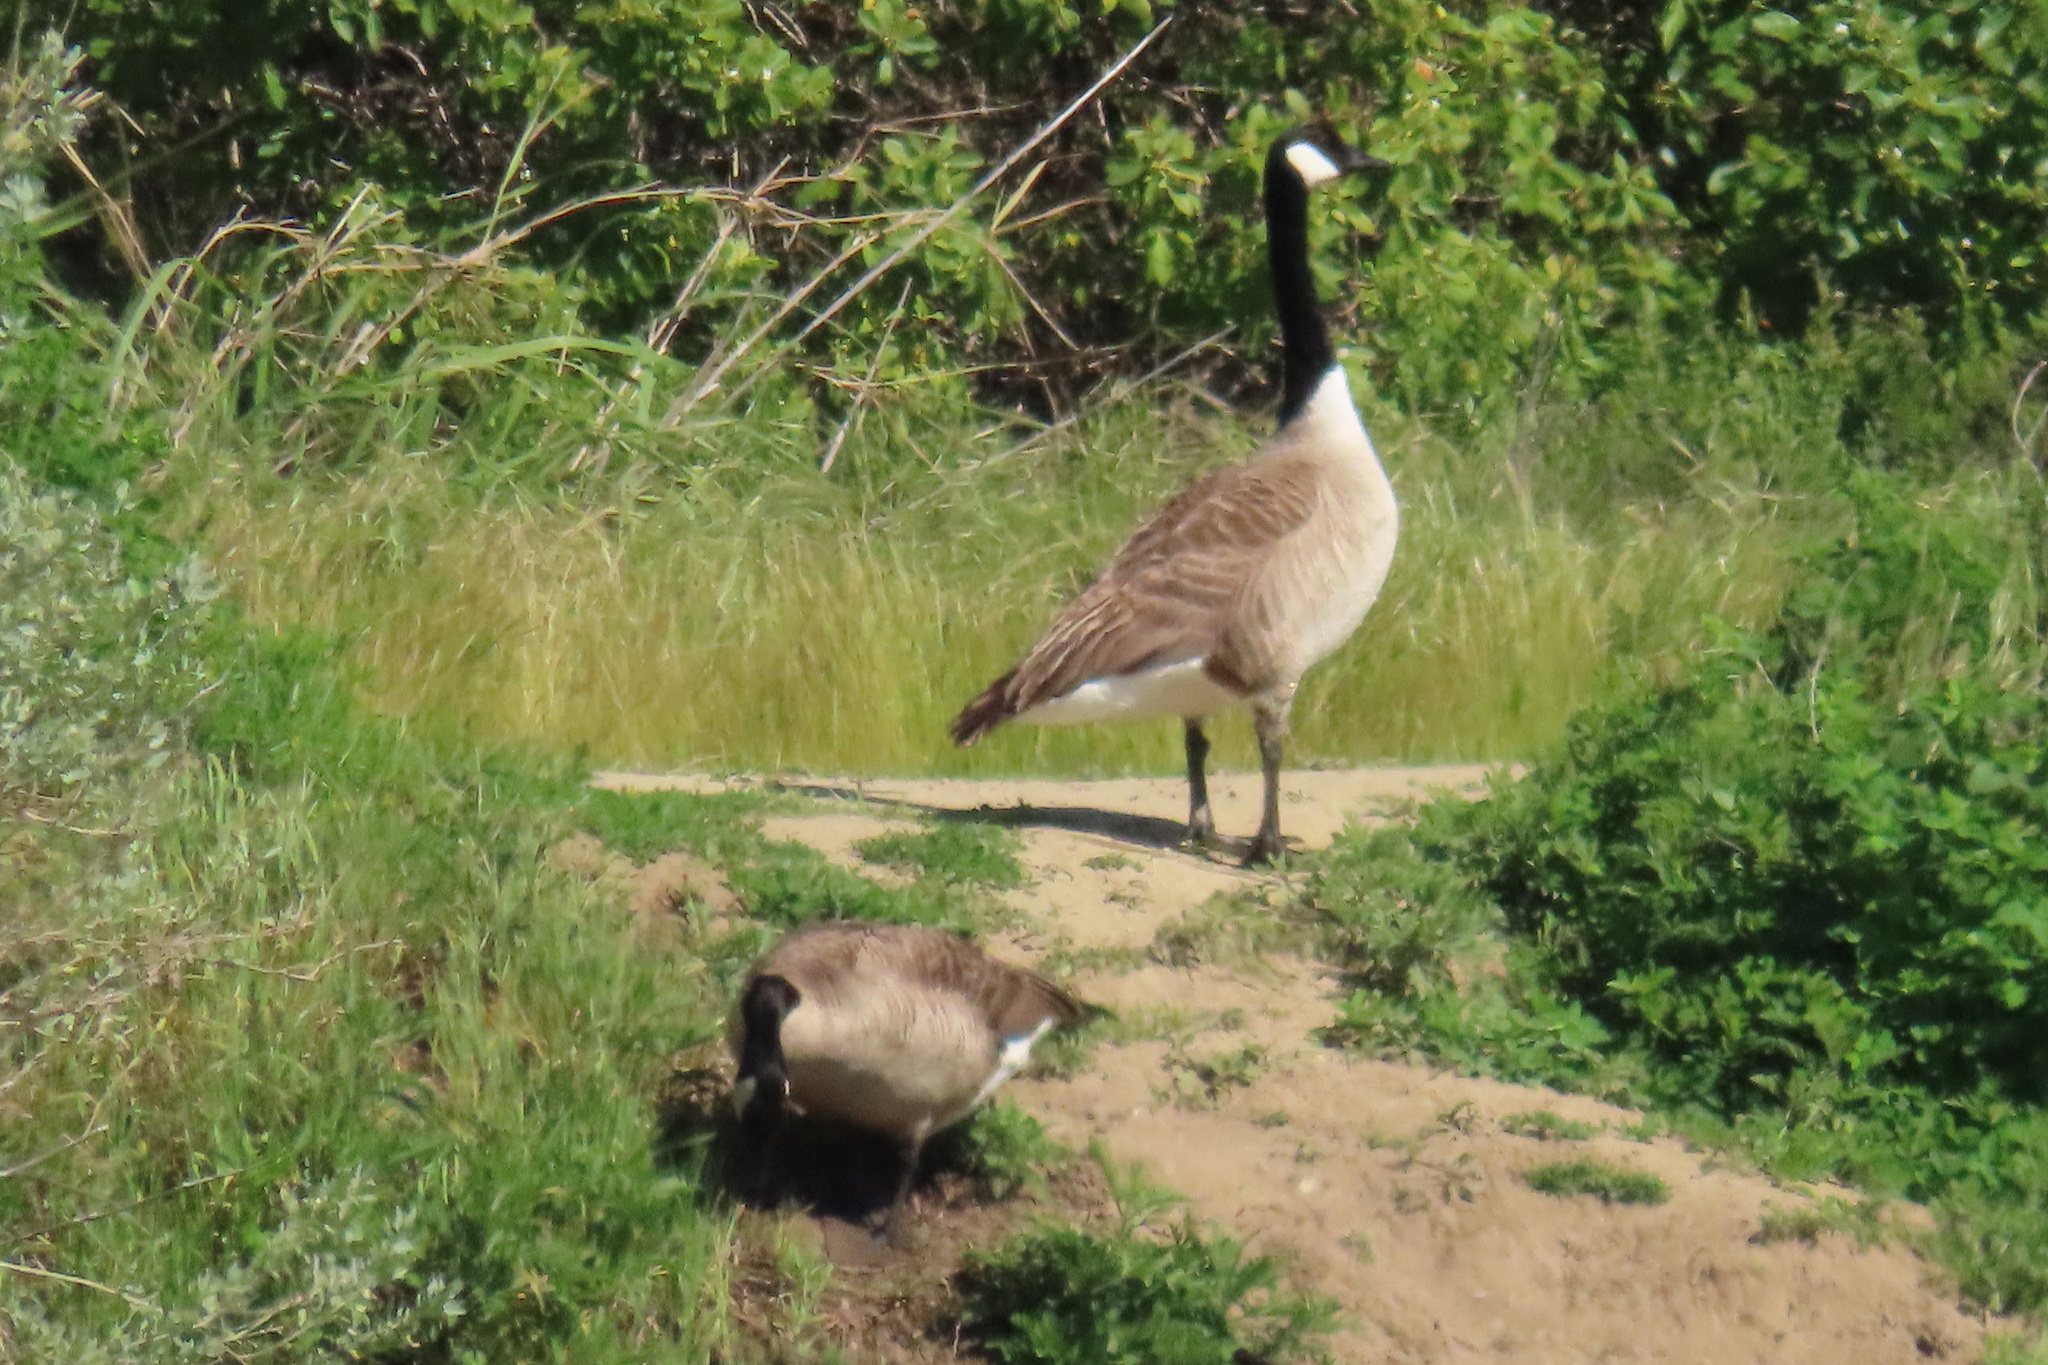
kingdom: Animalia
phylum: Chordata
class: Aves
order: Anseriformes
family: Anatidae
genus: Branta
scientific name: Branta canadensis
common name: Canada goose
